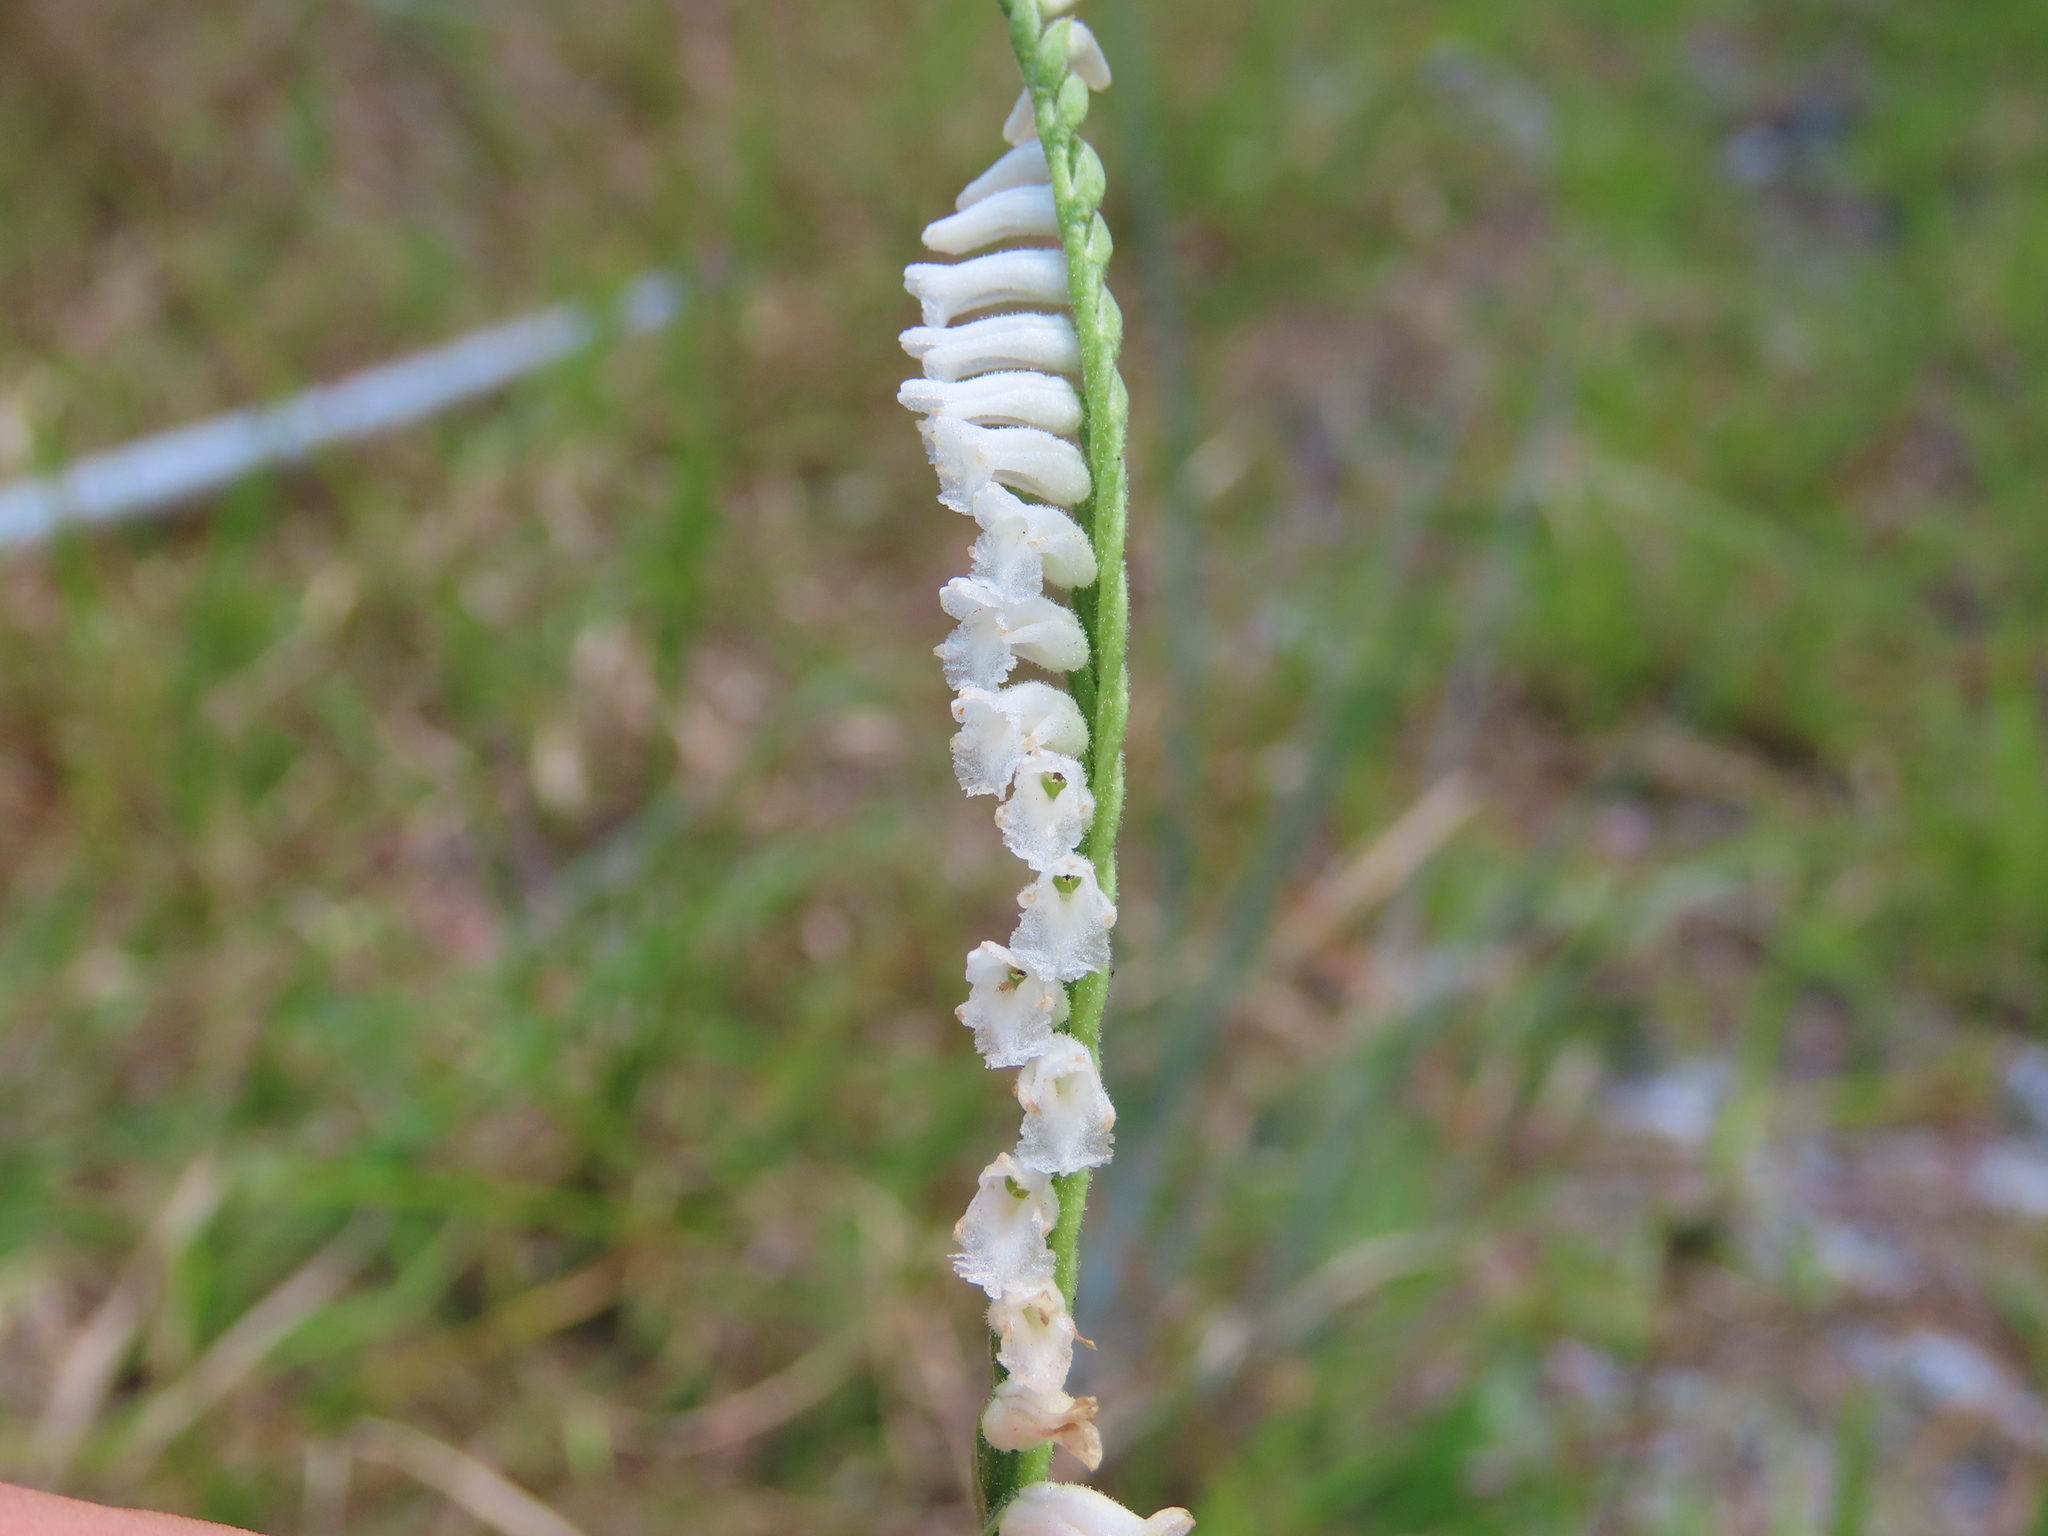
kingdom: Plantae
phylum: Tracheophyta
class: Liliopsida
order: Asparagales
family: Orchidaceae
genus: Spiranthes
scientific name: Spiranthes praecox
